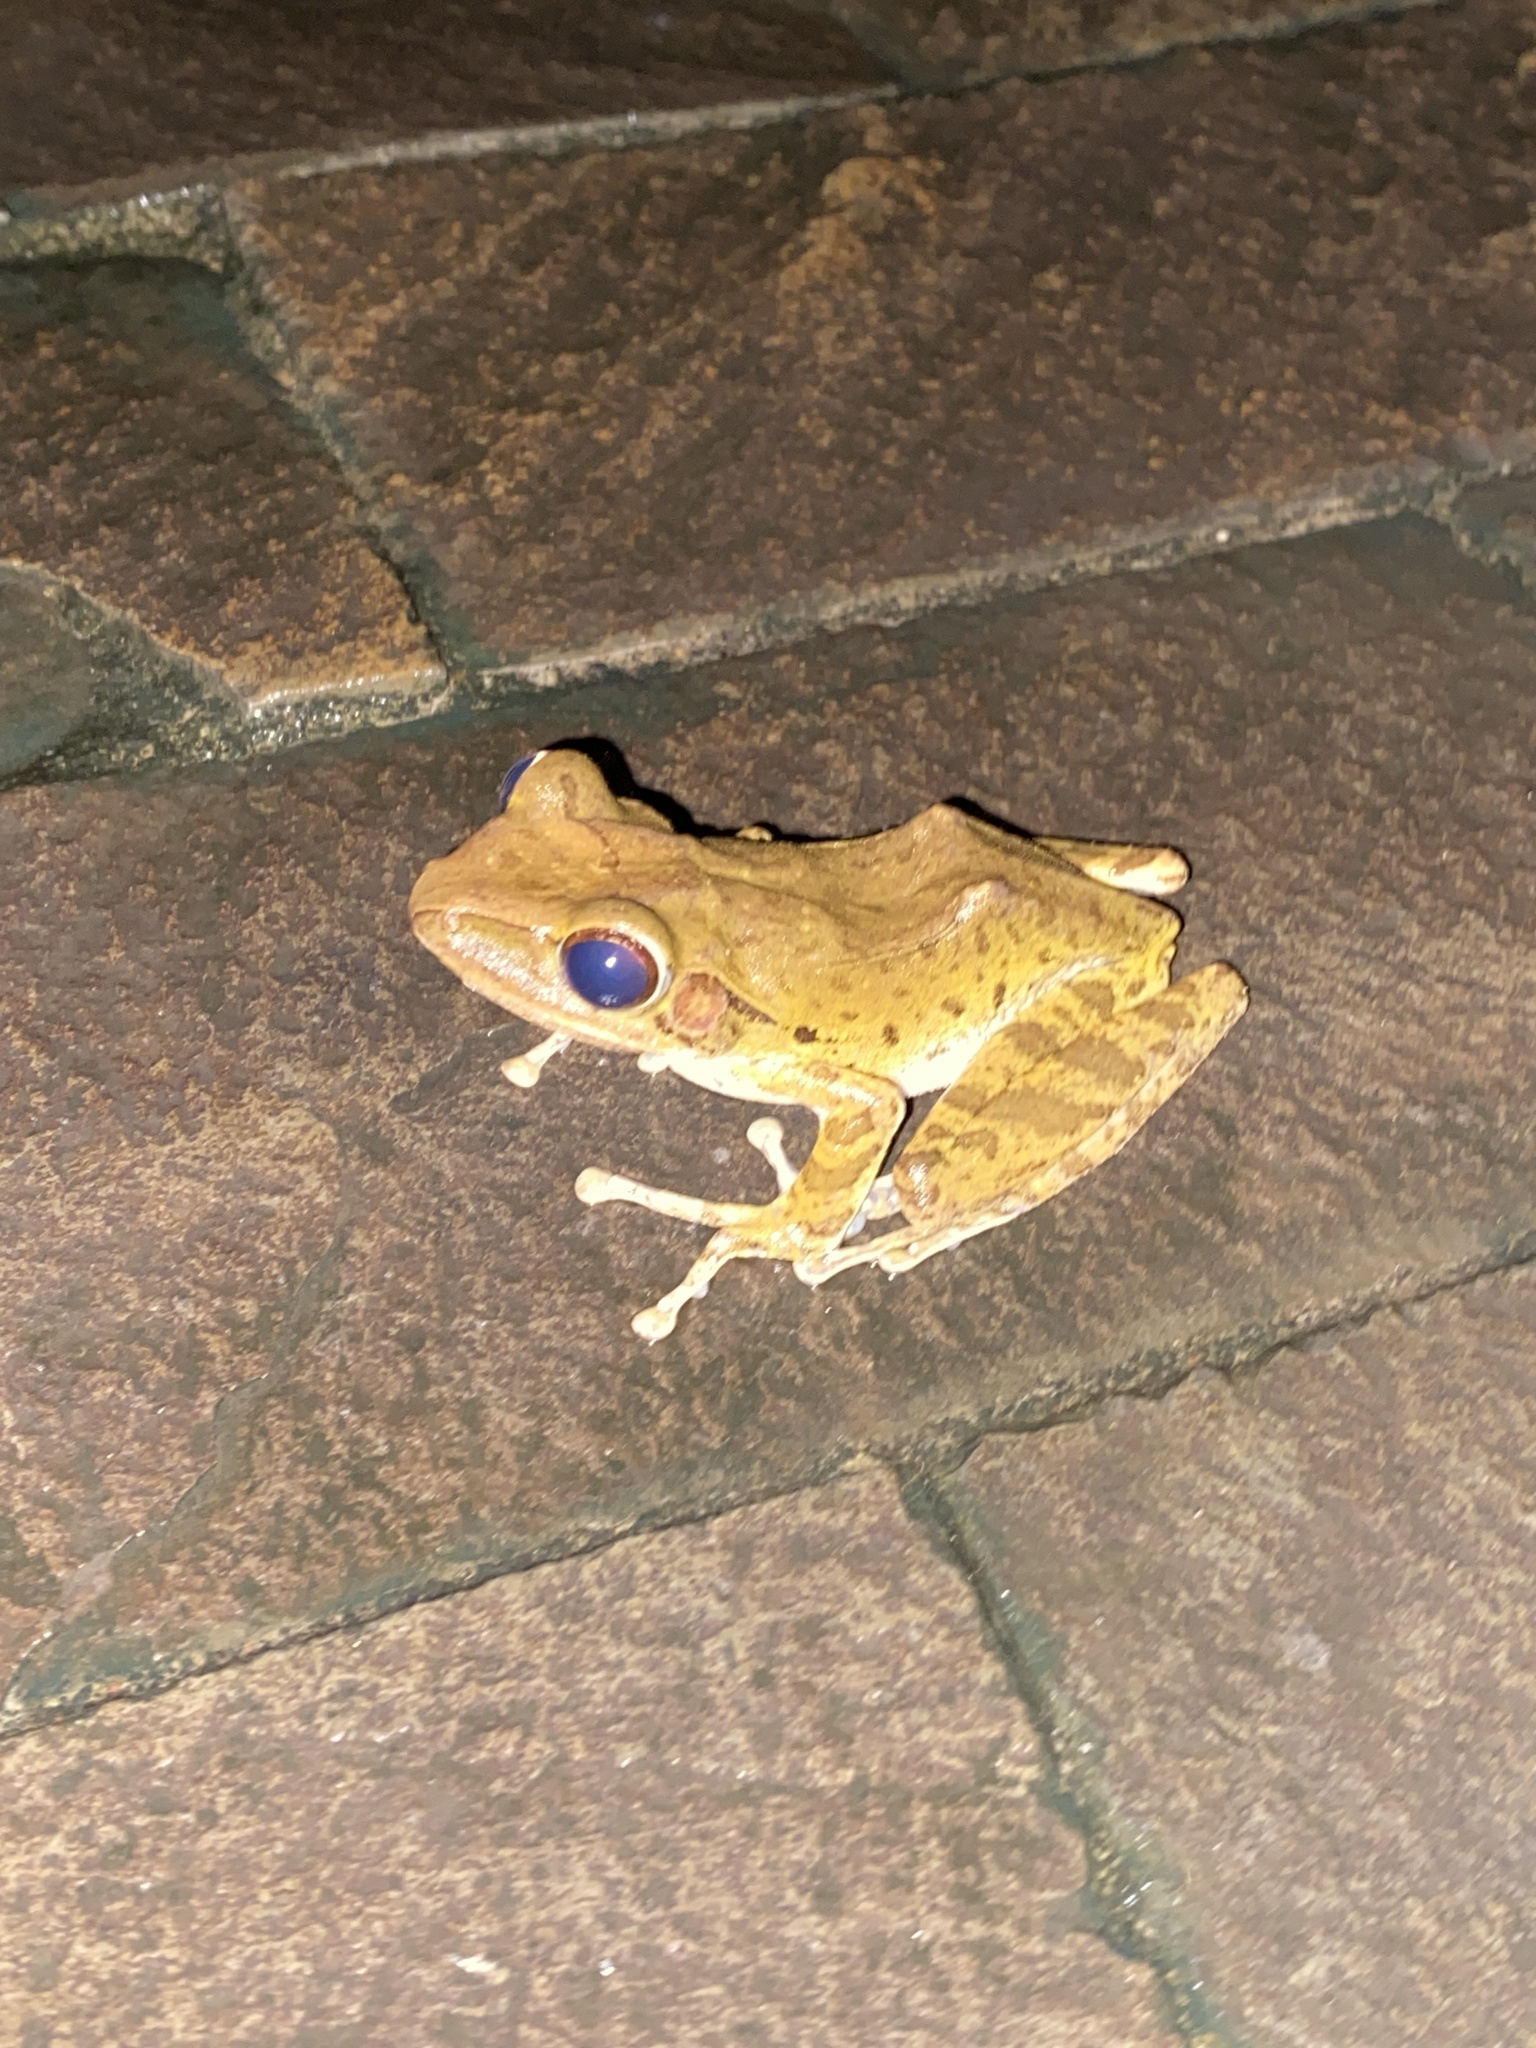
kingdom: Animalia
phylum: Chordata
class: Amphibia
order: Anura
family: Rhacophoridae
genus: Polypedates
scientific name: Polypedates leucomystax
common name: Common tree frog/four-lined tree frog
